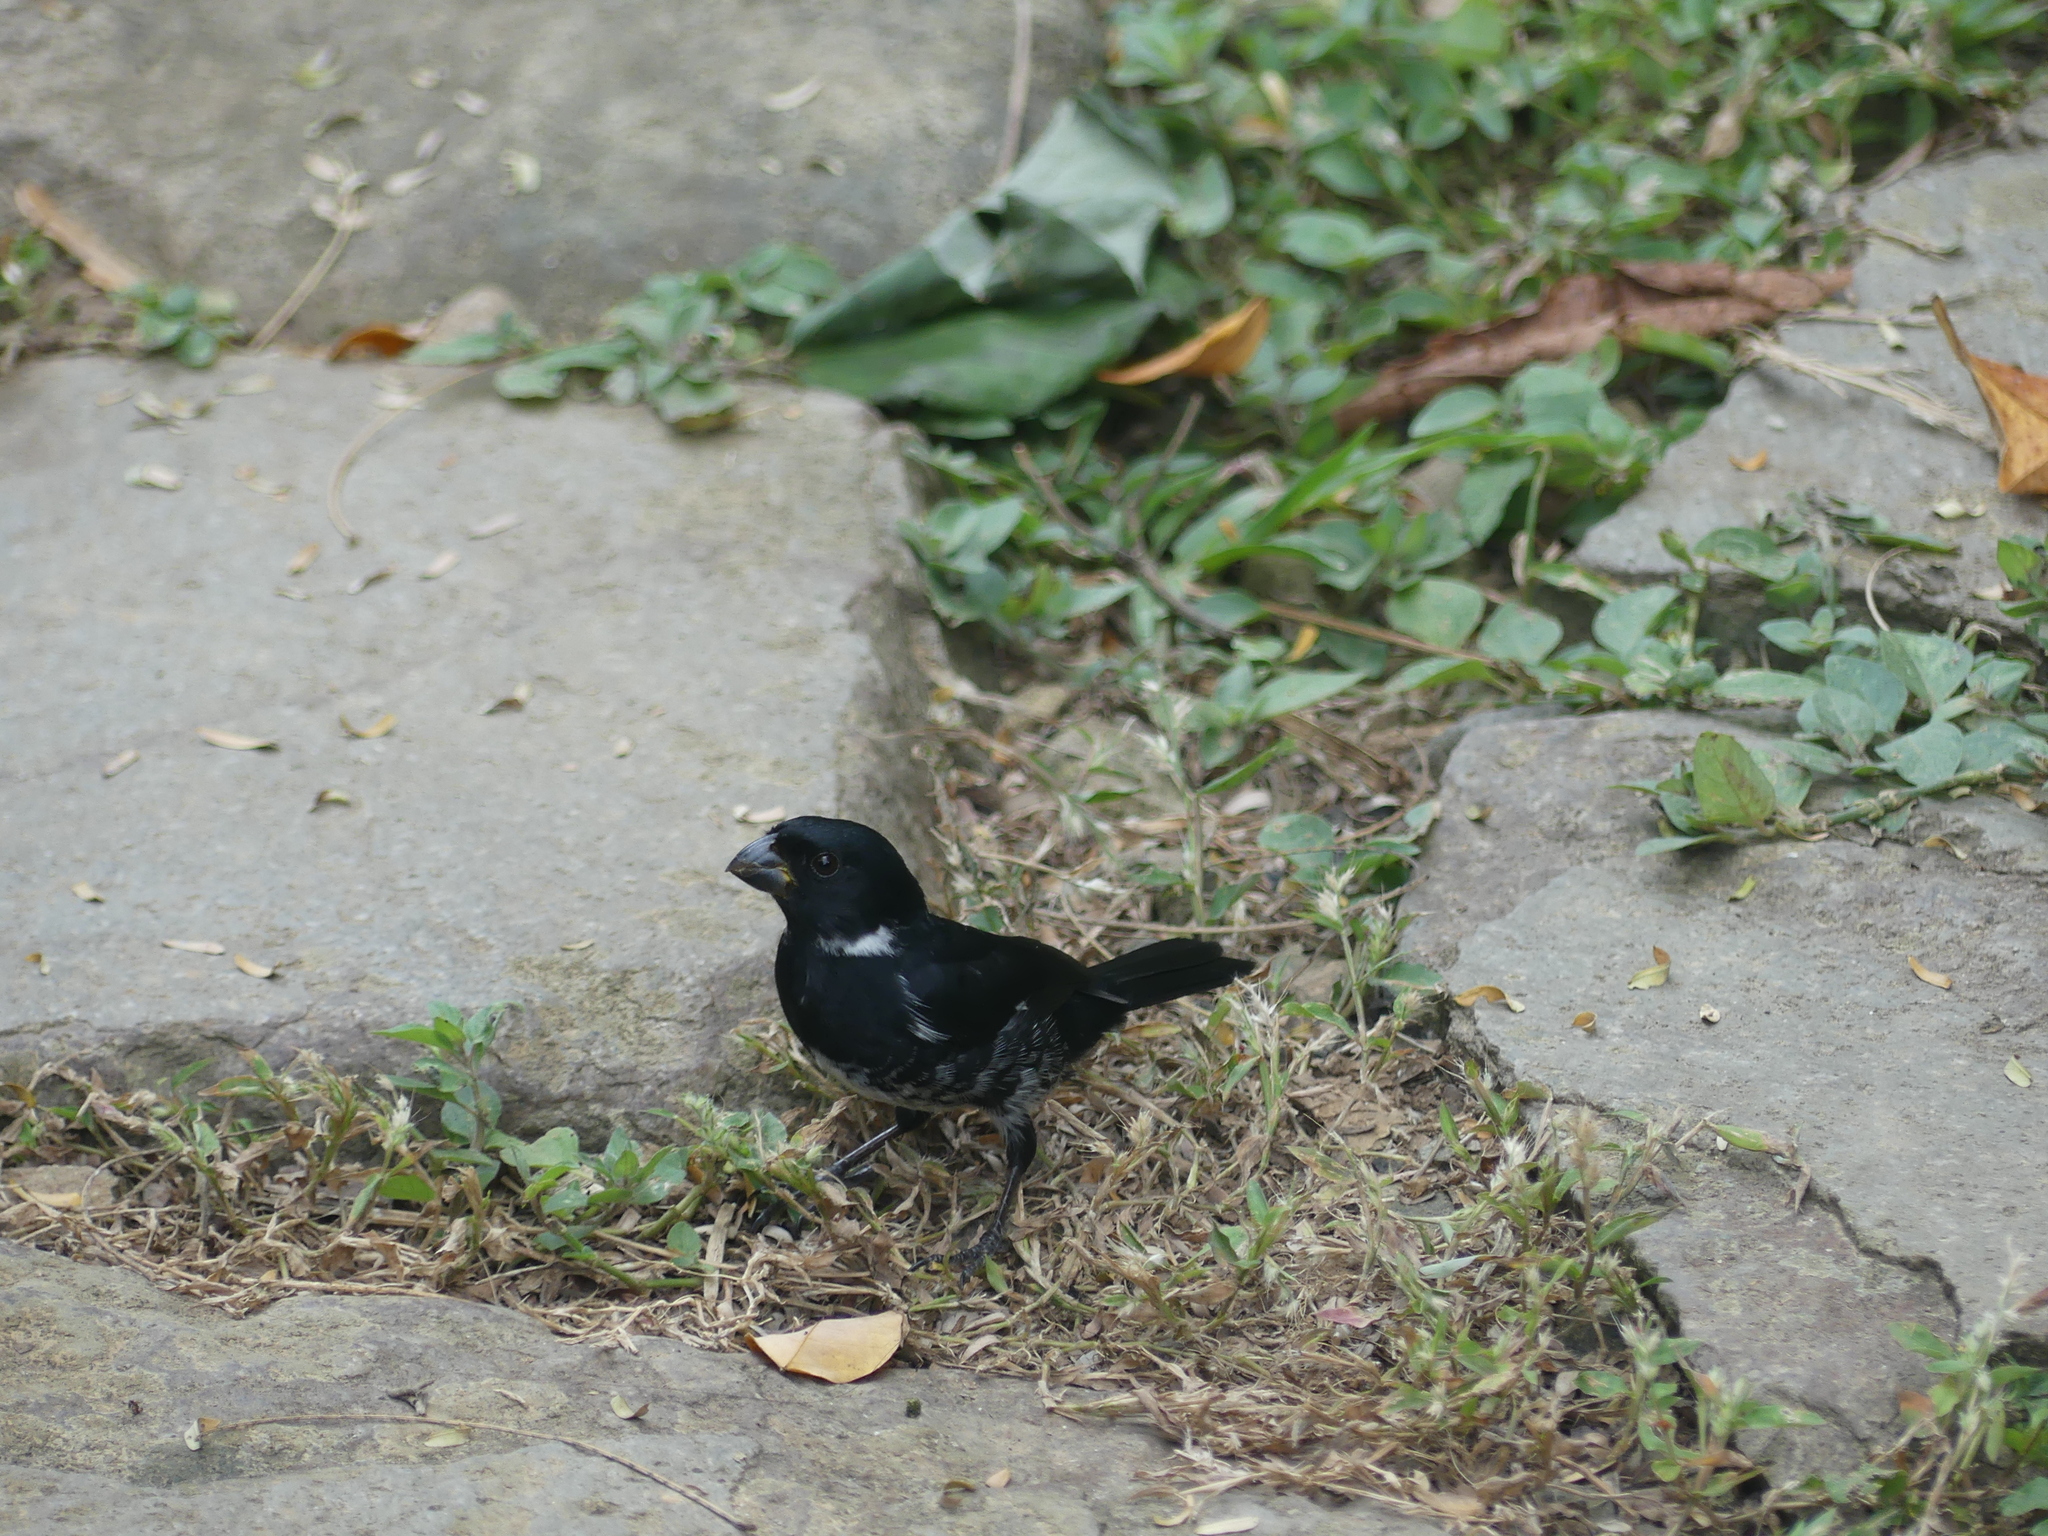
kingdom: Animalia
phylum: Chordata
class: Aves
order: Passeriformes
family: Thraupidae
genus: Sporophila
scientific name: Sporophila corvina
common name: Variable seedeater
